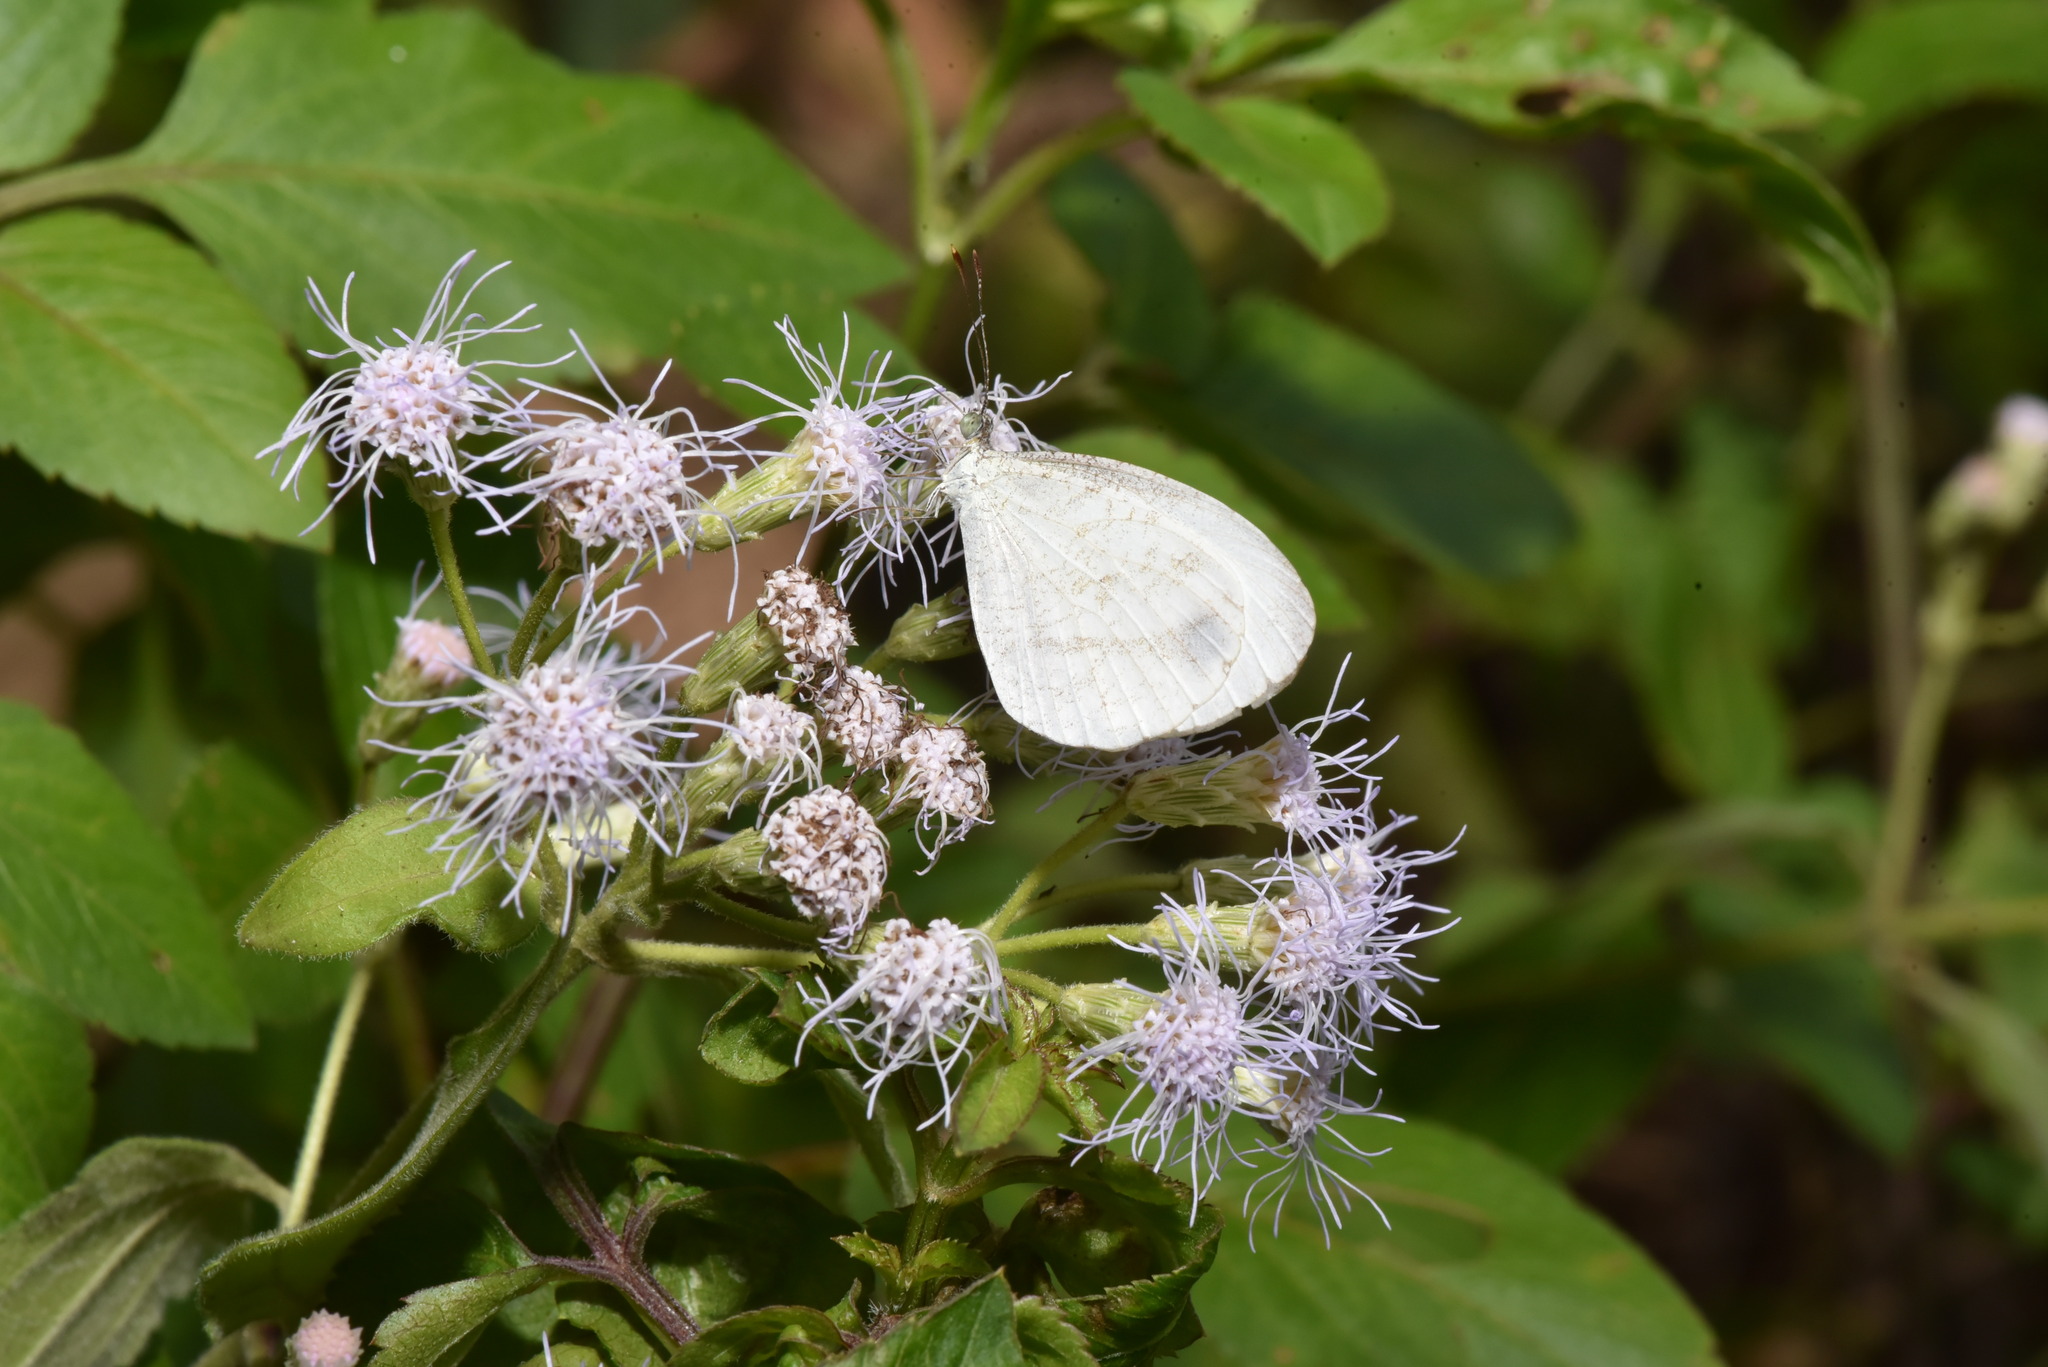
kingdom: Animalia
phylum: Arthropoda
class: Insecta
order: Lepidoptera
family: Pieridae
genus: Leptosia
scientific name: Leptosia nina
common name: Psyche
